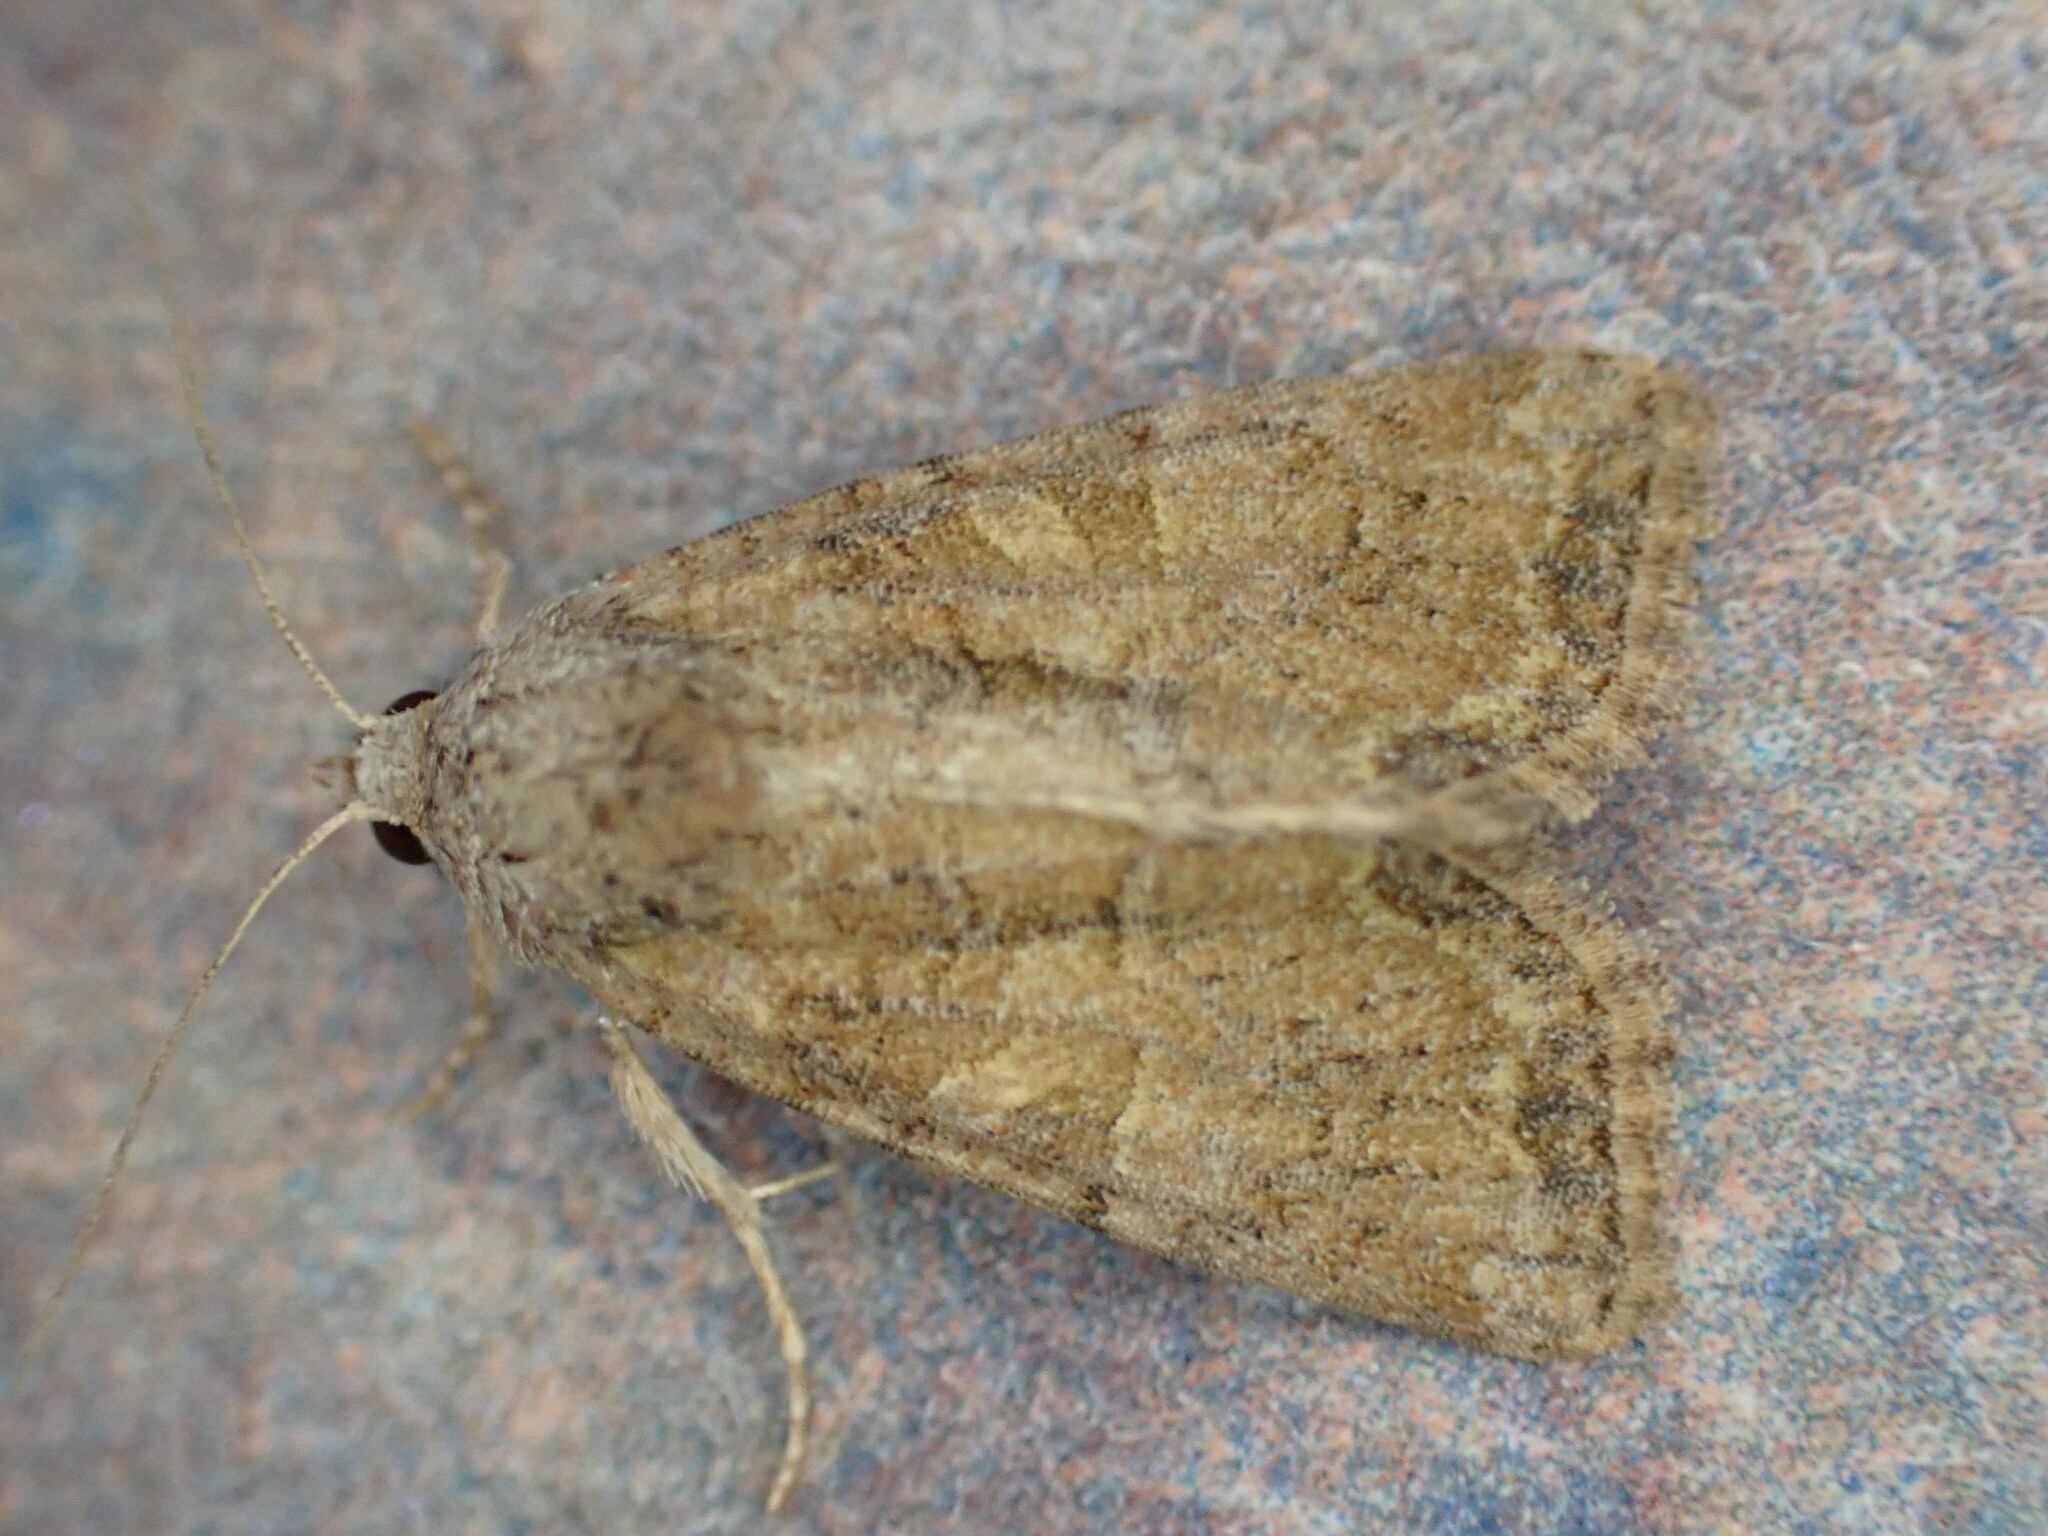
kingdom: Animalia
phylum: Arthropoda
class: Insecta
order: Lepidoptera
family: Noctuidae
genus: Mesoligia
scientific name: Mesoligia furuncula
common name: Cloaked minor
